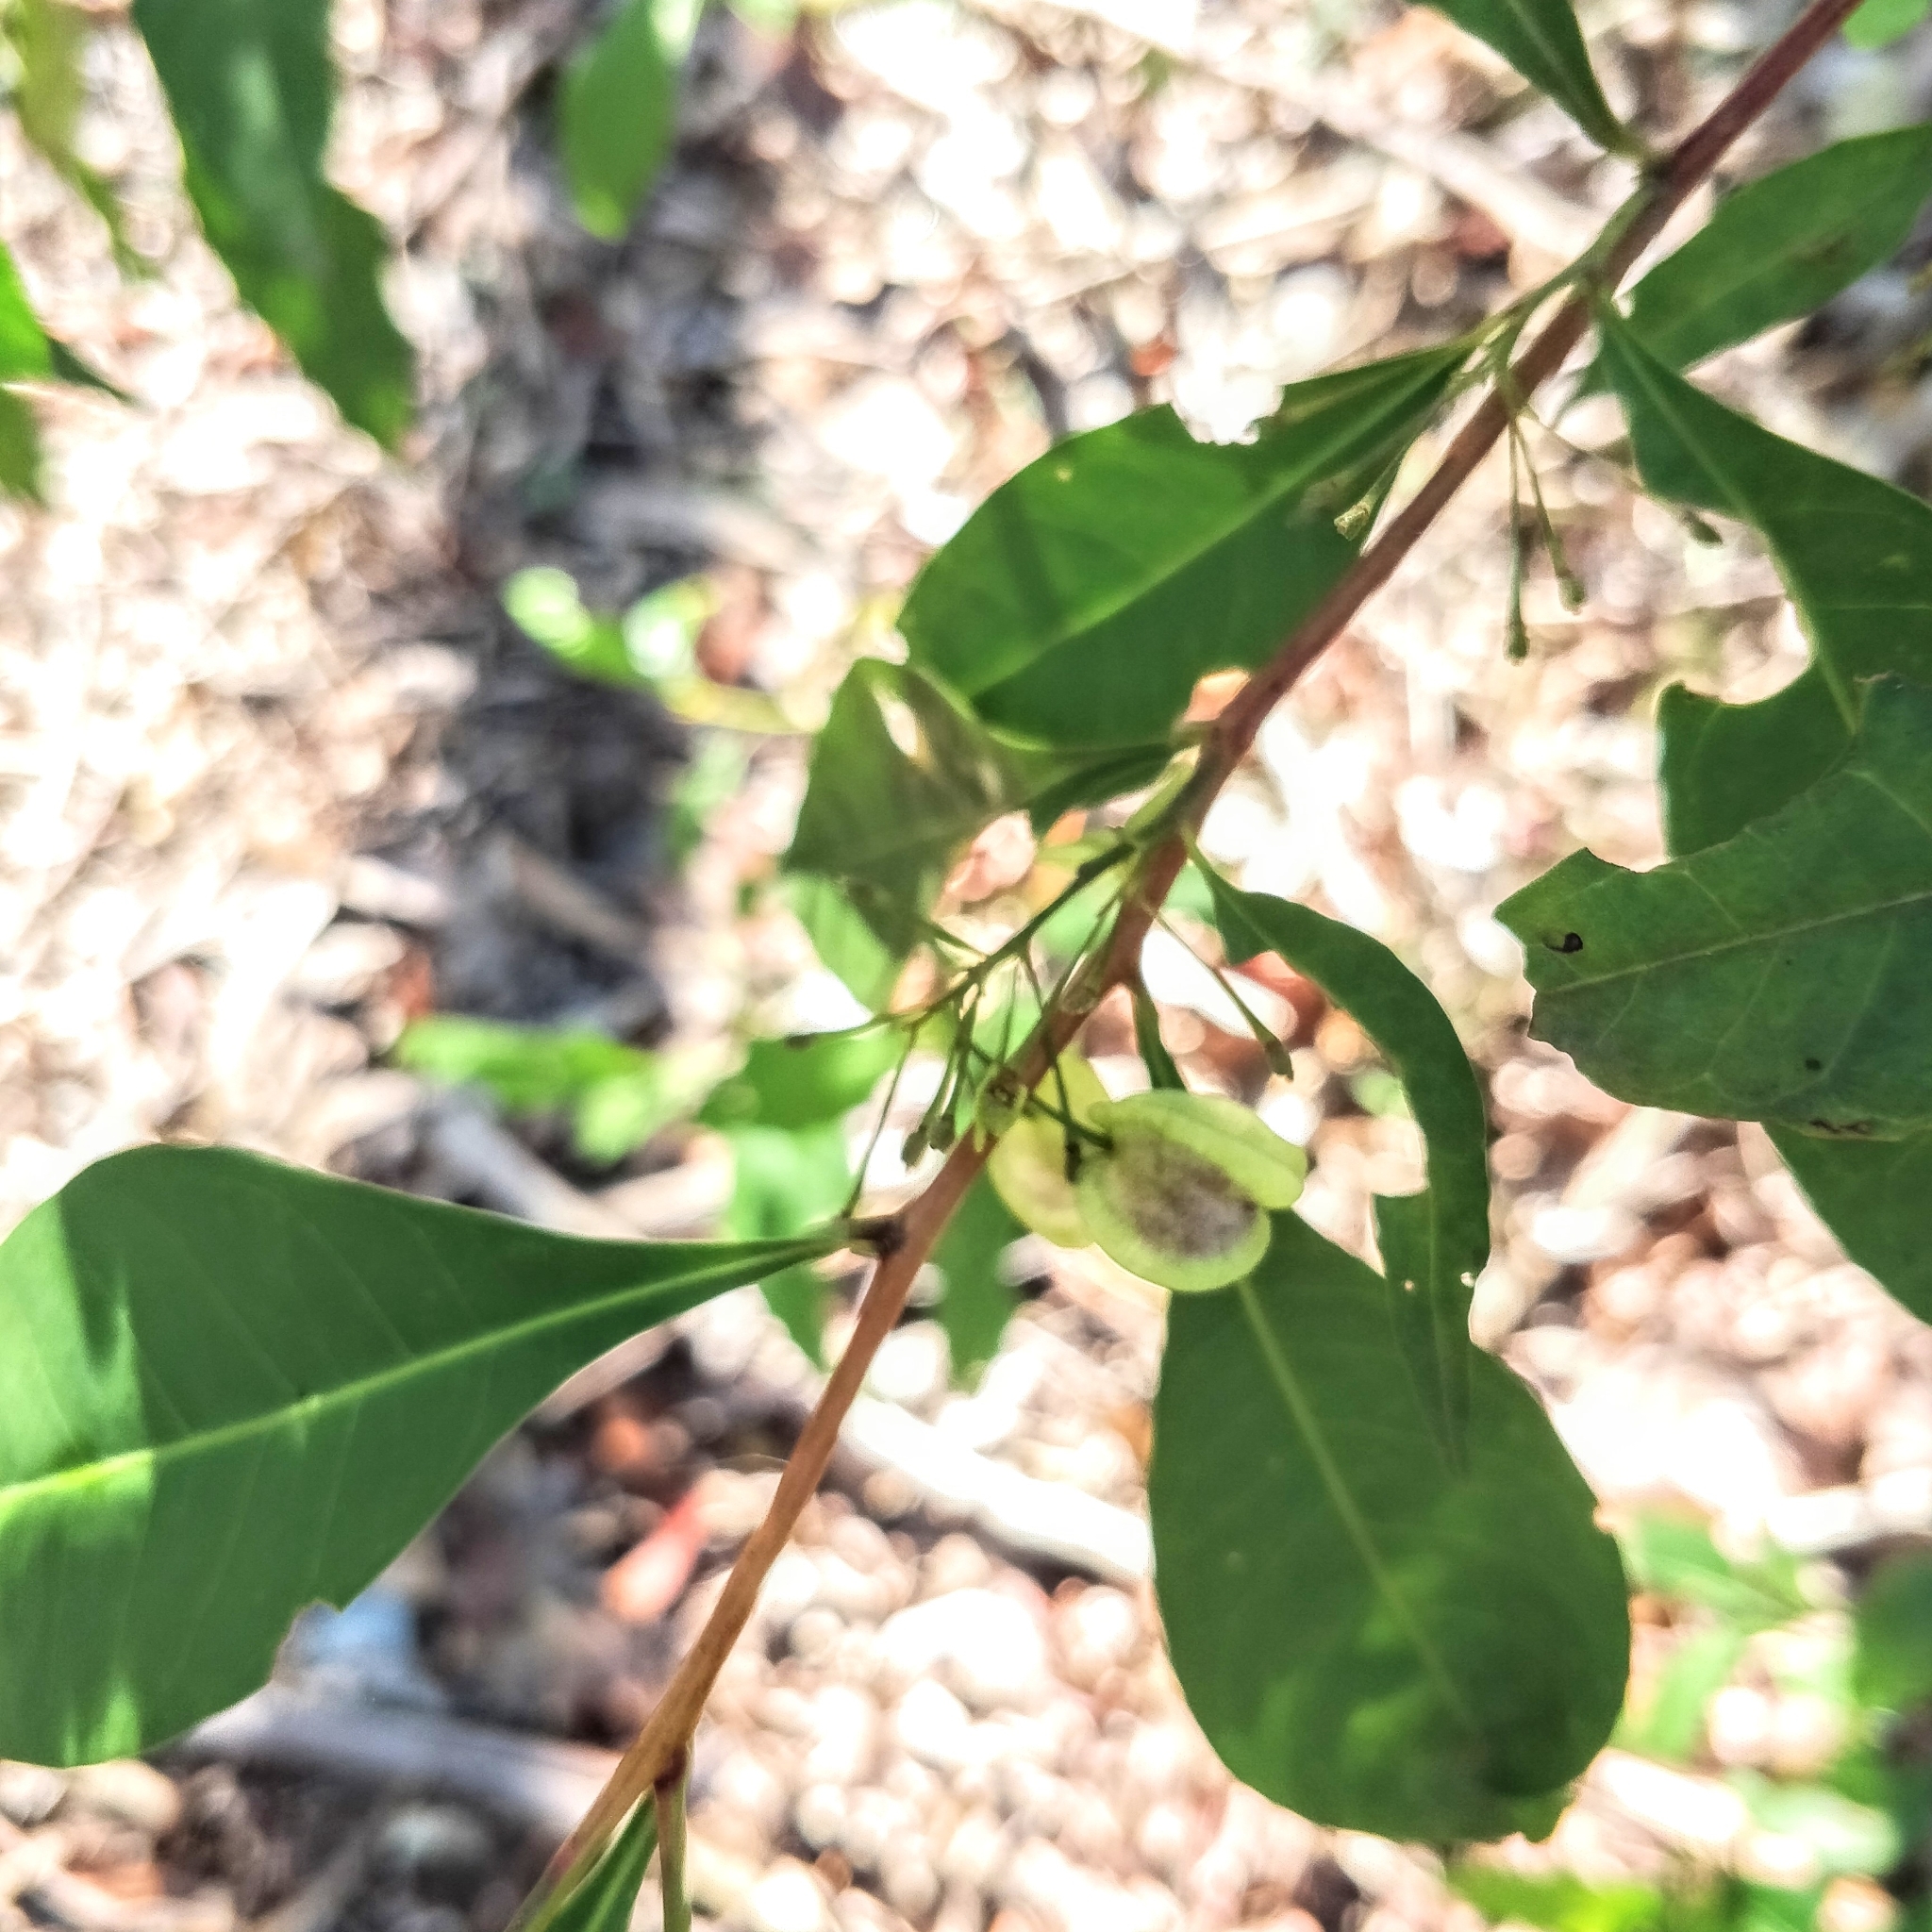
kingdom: Plantae
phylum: Tracheophyta
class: Magnoliopsida
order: Sapindales
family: Sapindaceae
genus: Dodonaea
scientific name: Dodonaea triquetra
